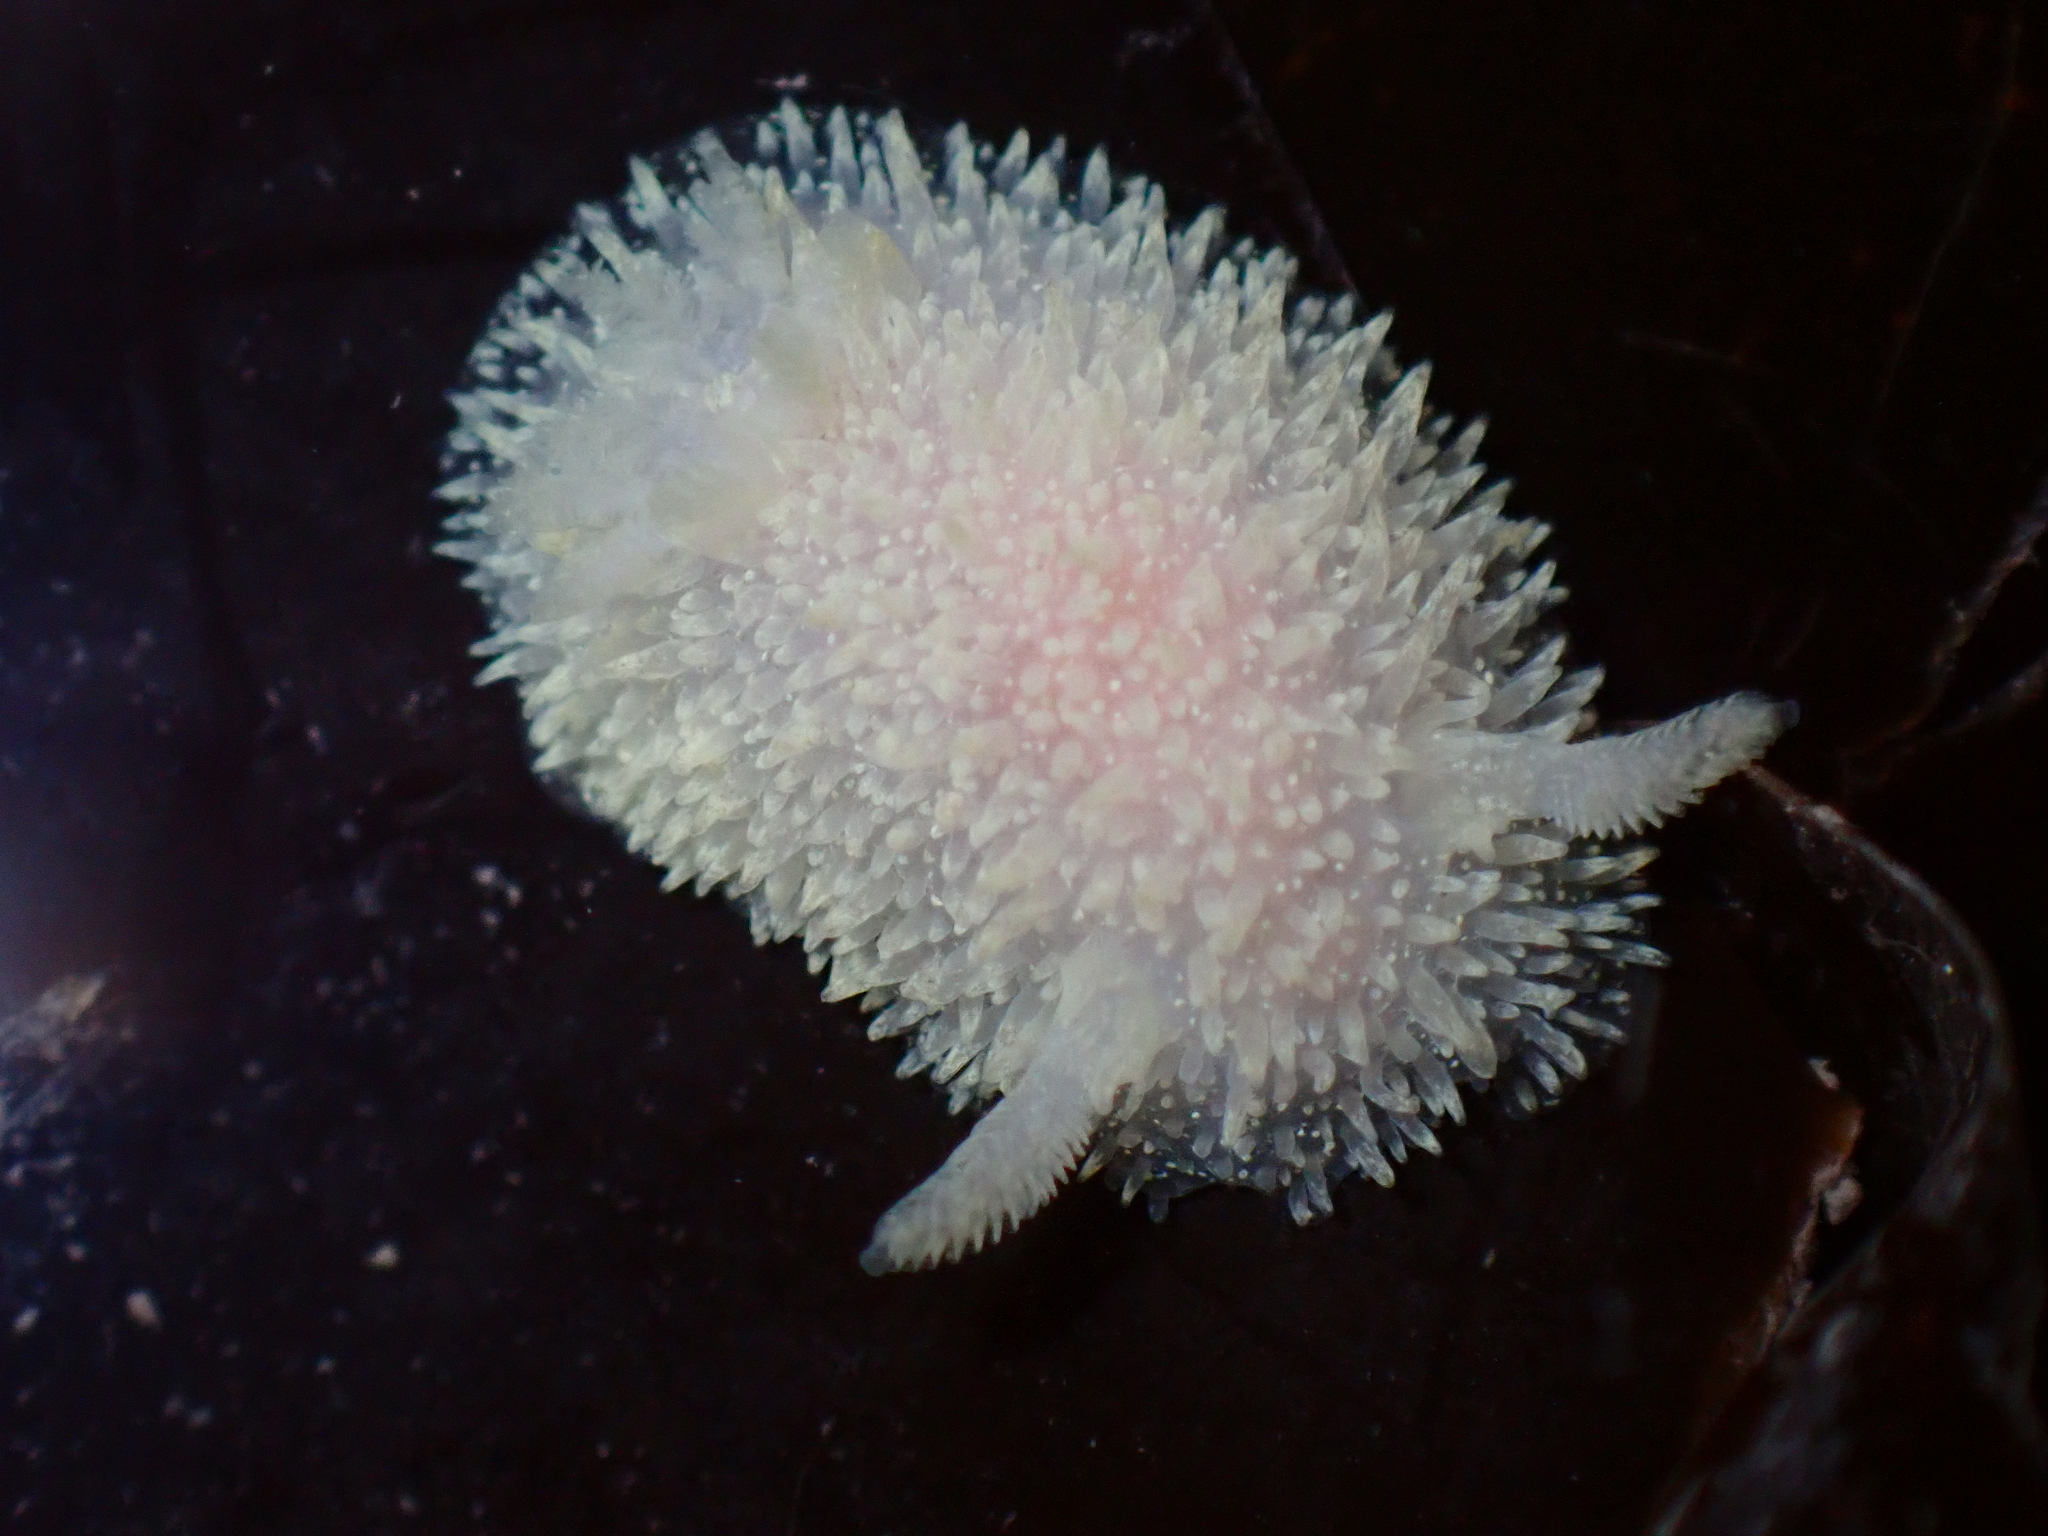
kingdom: Animalia
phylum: Mollusca
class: Gastropoda
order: Nudibranchia
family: Onchidorididae
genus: Acanthodoris
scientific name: Acanthodoris atrogriseata
